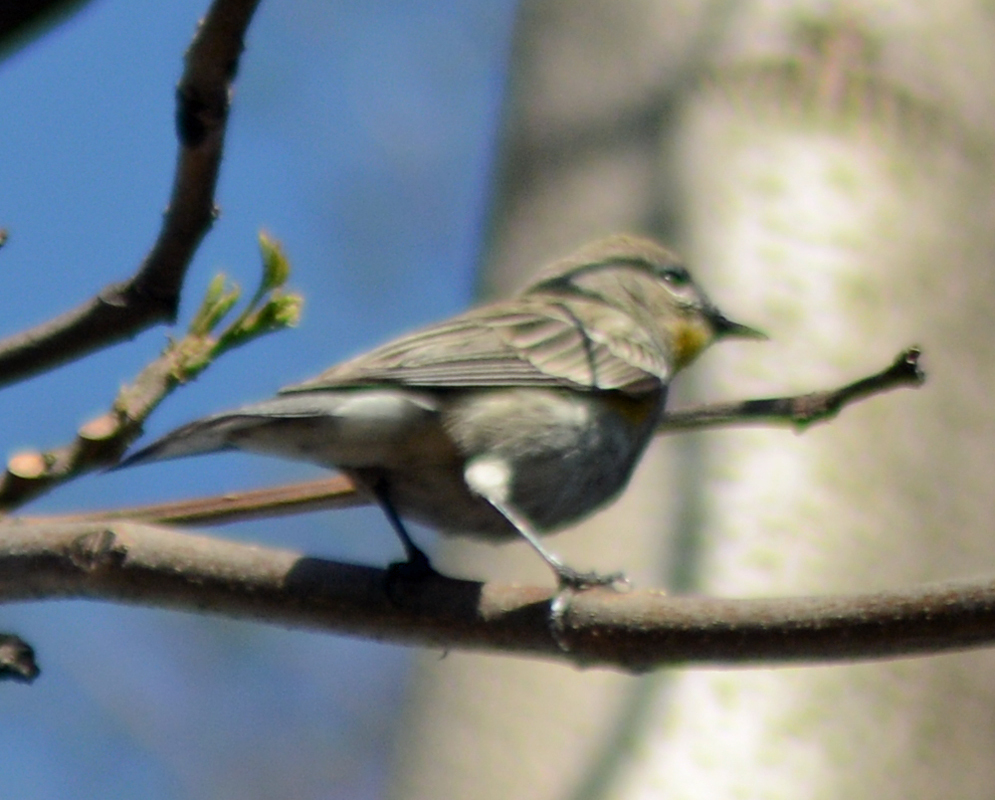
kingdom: Animalia
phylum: Chordata
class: Aves
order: Passeriformes
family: Parulidae
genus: Setophaga
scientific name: Setophaga coronata
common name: Myrtle warbler
